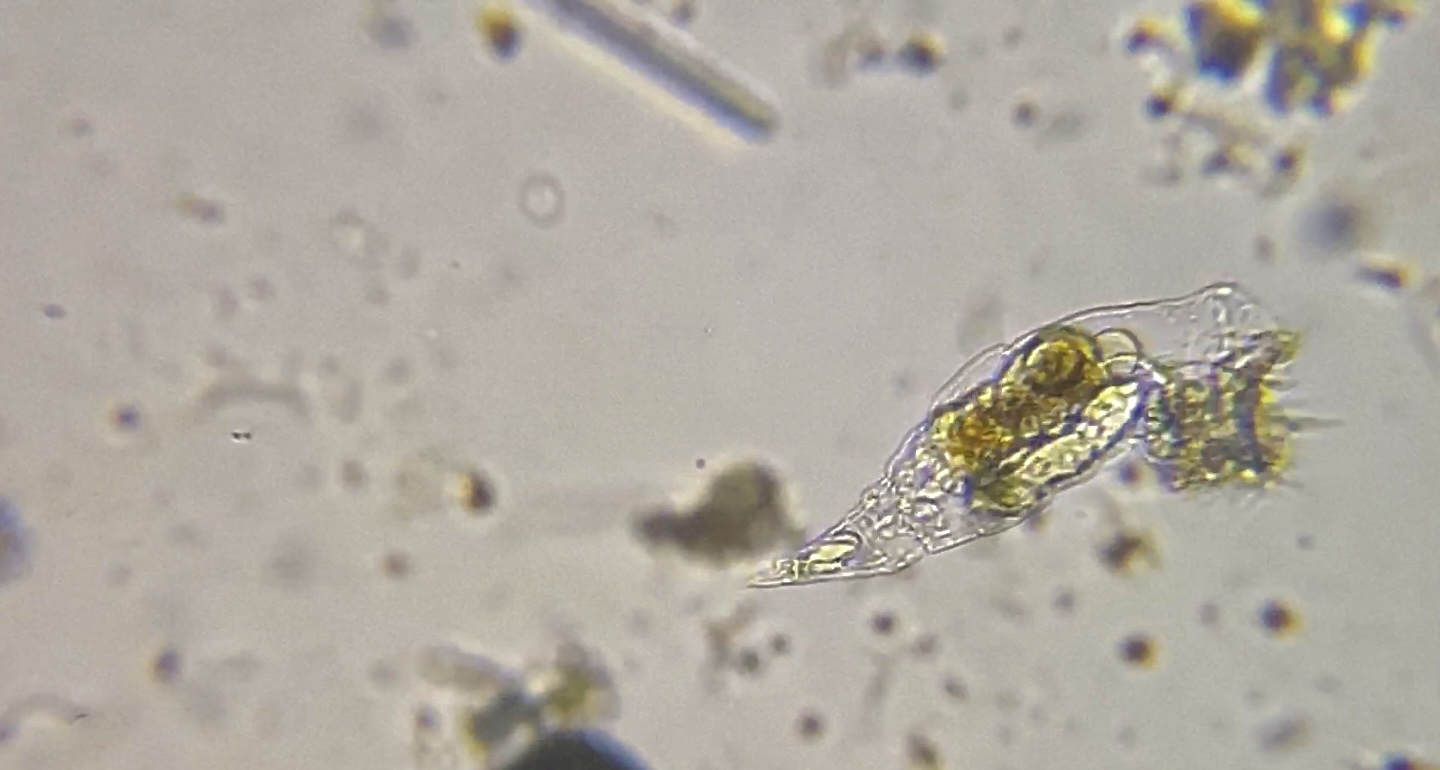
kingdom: Animalia
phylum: Rotifera
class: Eurotatoria
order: Ploima
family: Epiphanidae
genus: Cyrtonia
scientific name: Cyrtonia tuba
